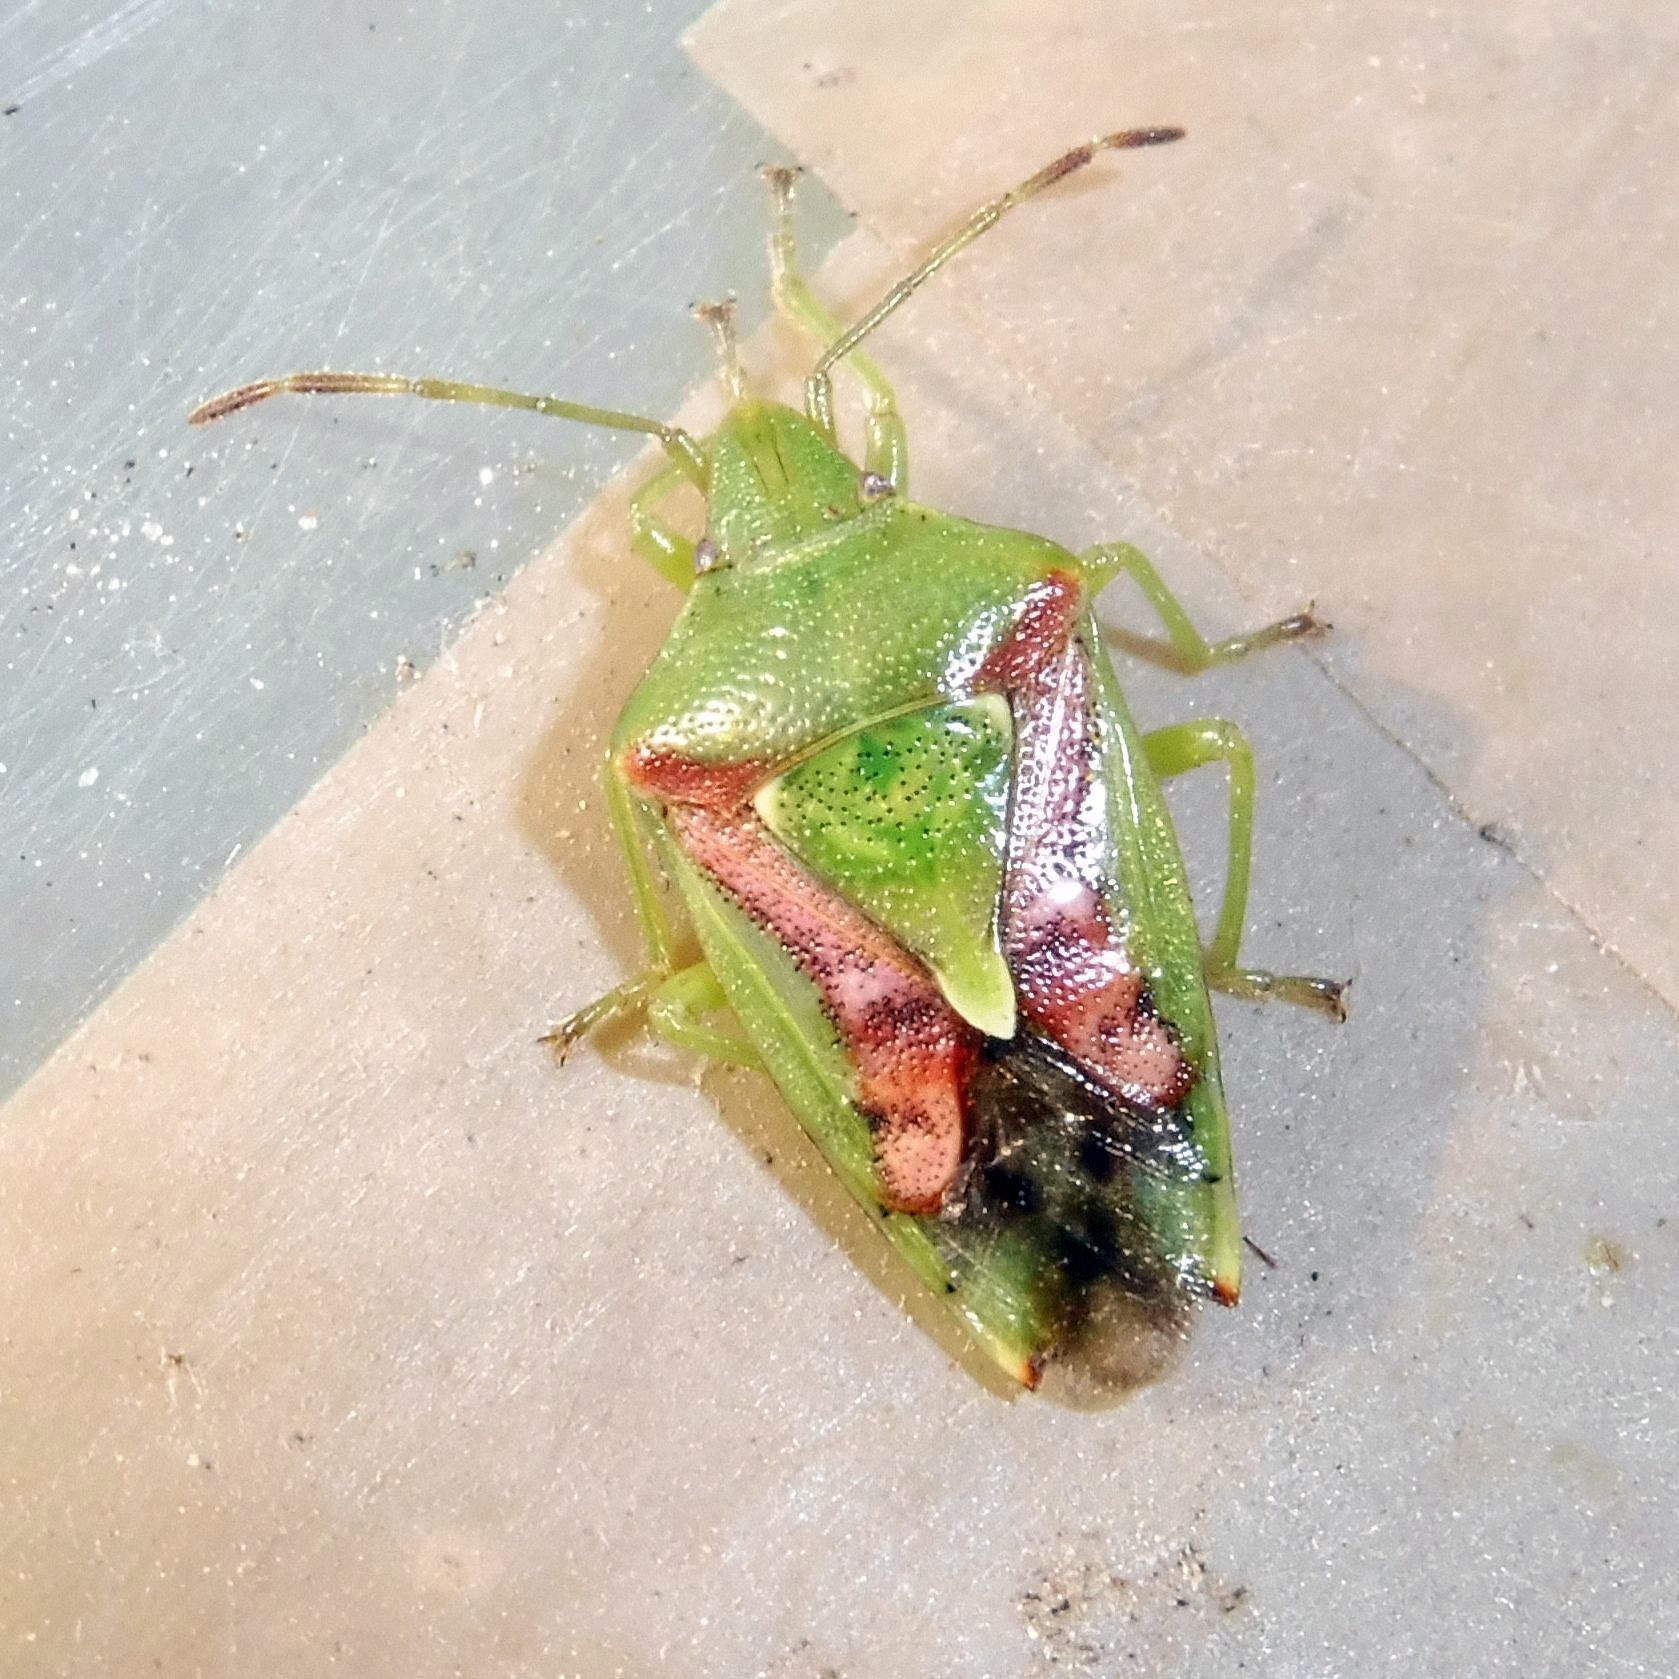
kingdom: Animalia
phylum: Arthropoda
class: Insecta
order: Hemiptera
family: Acanthosomatidae
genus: Cyphostethus
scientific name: Cyphostethus tristriatus
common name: Juniper shieldbug
